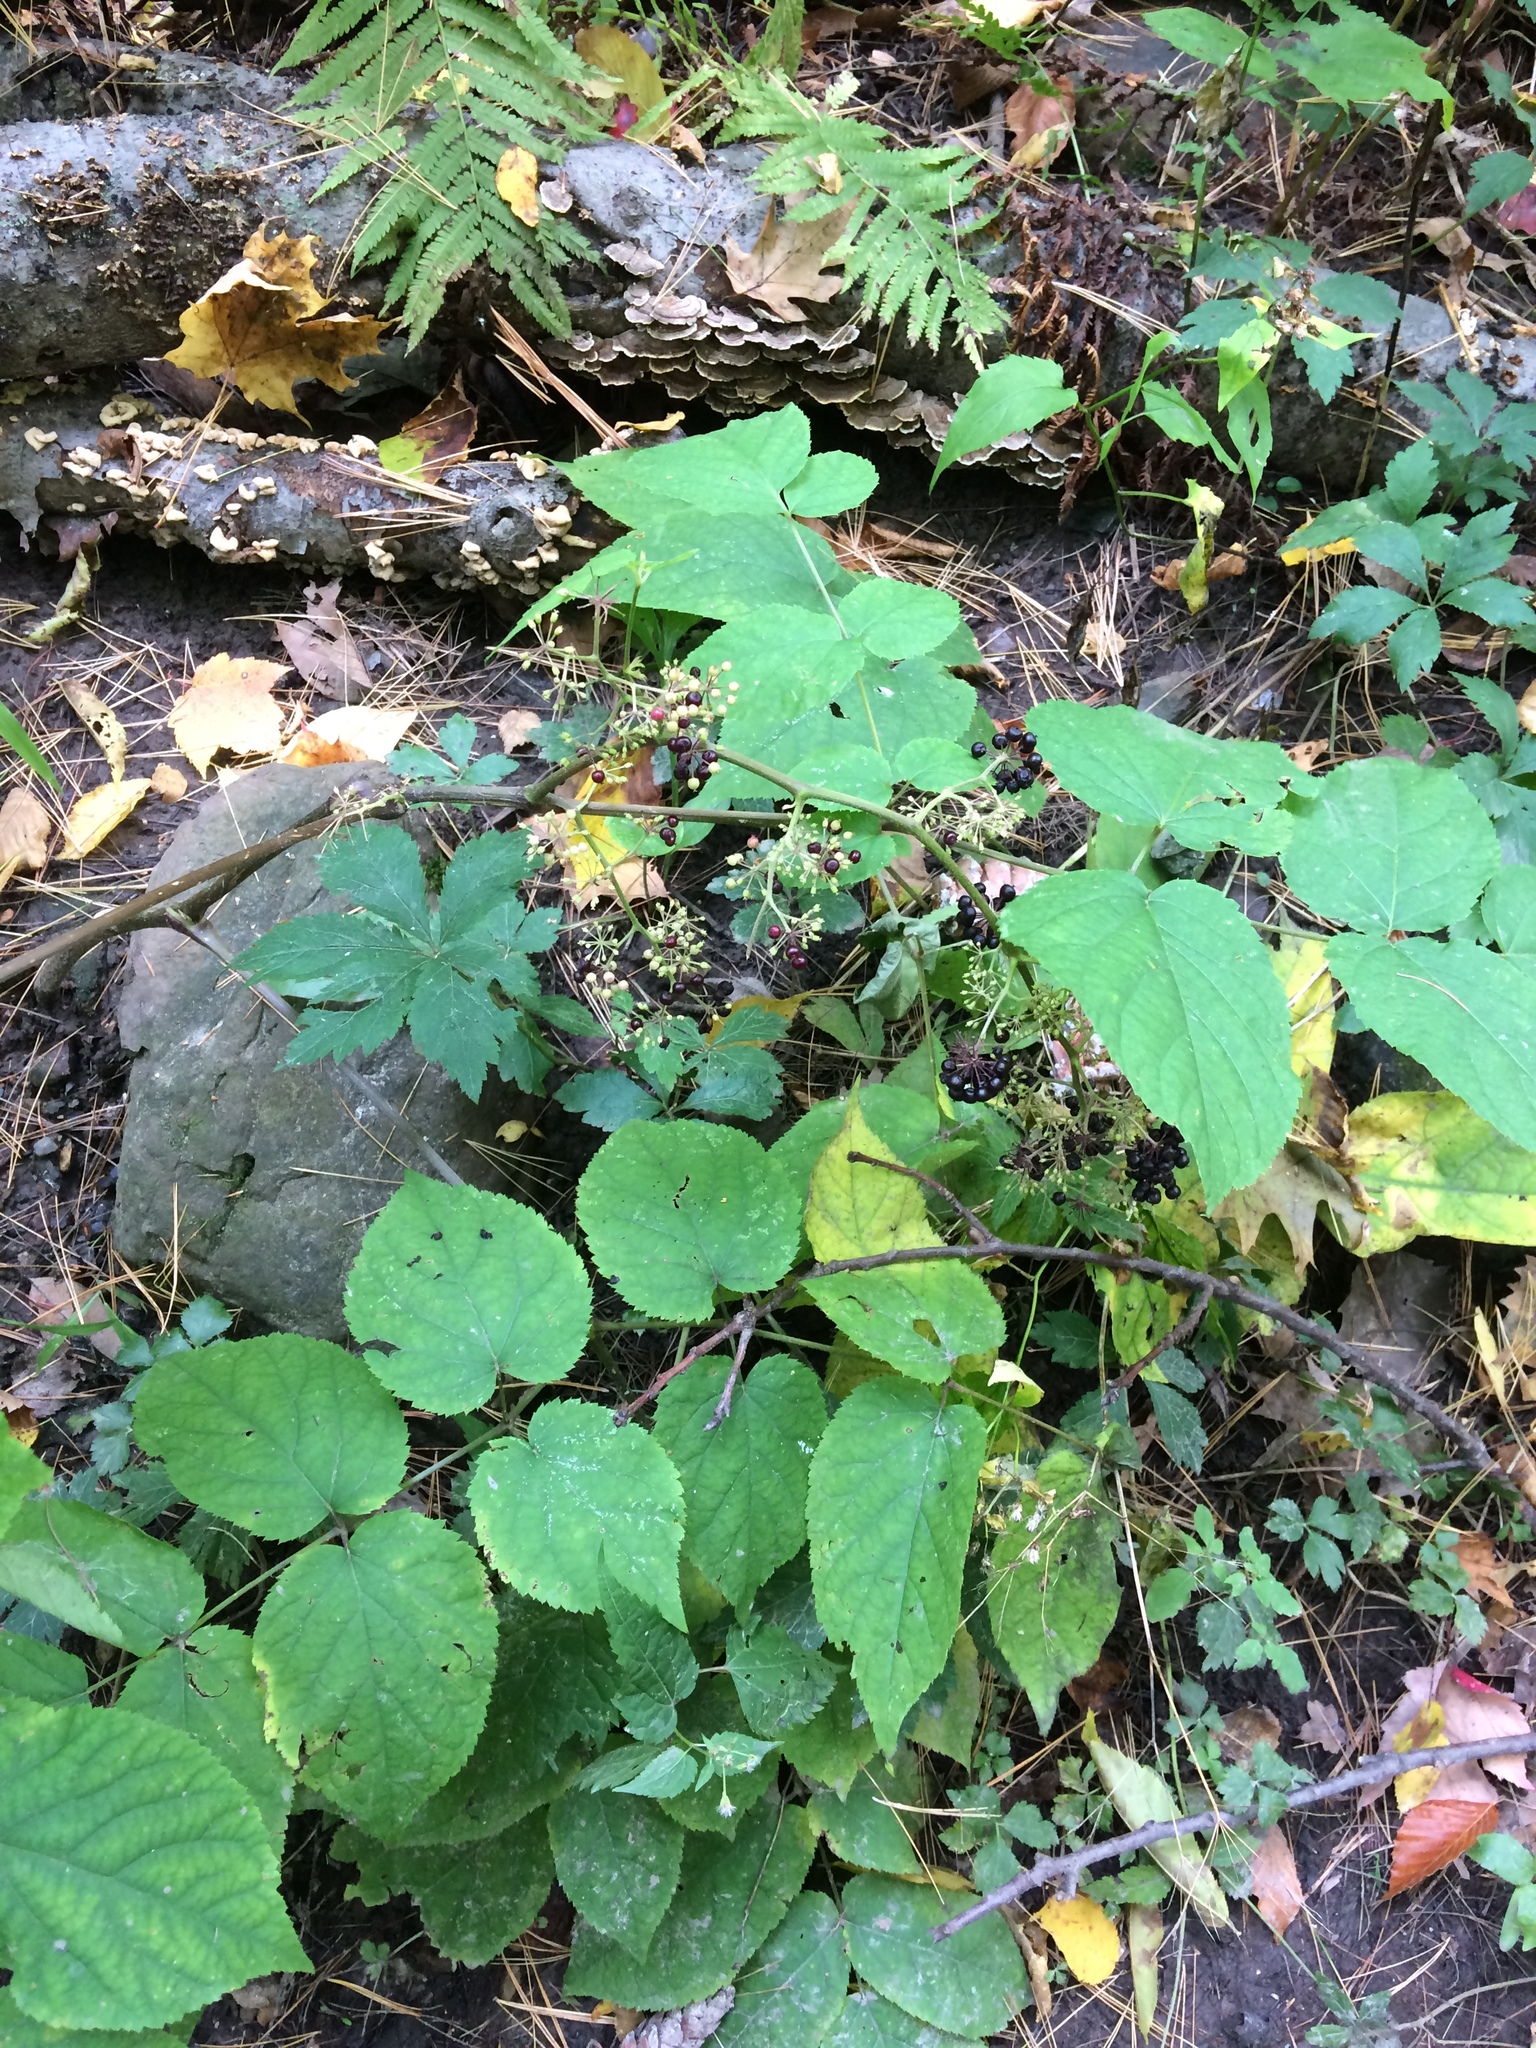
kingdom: Plantae
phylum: Tracheophyta
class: Magnoliopsida
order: Apiales
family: Araliaceae
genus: Aralia
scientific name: Aralia racemosa
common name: American-spikenard
